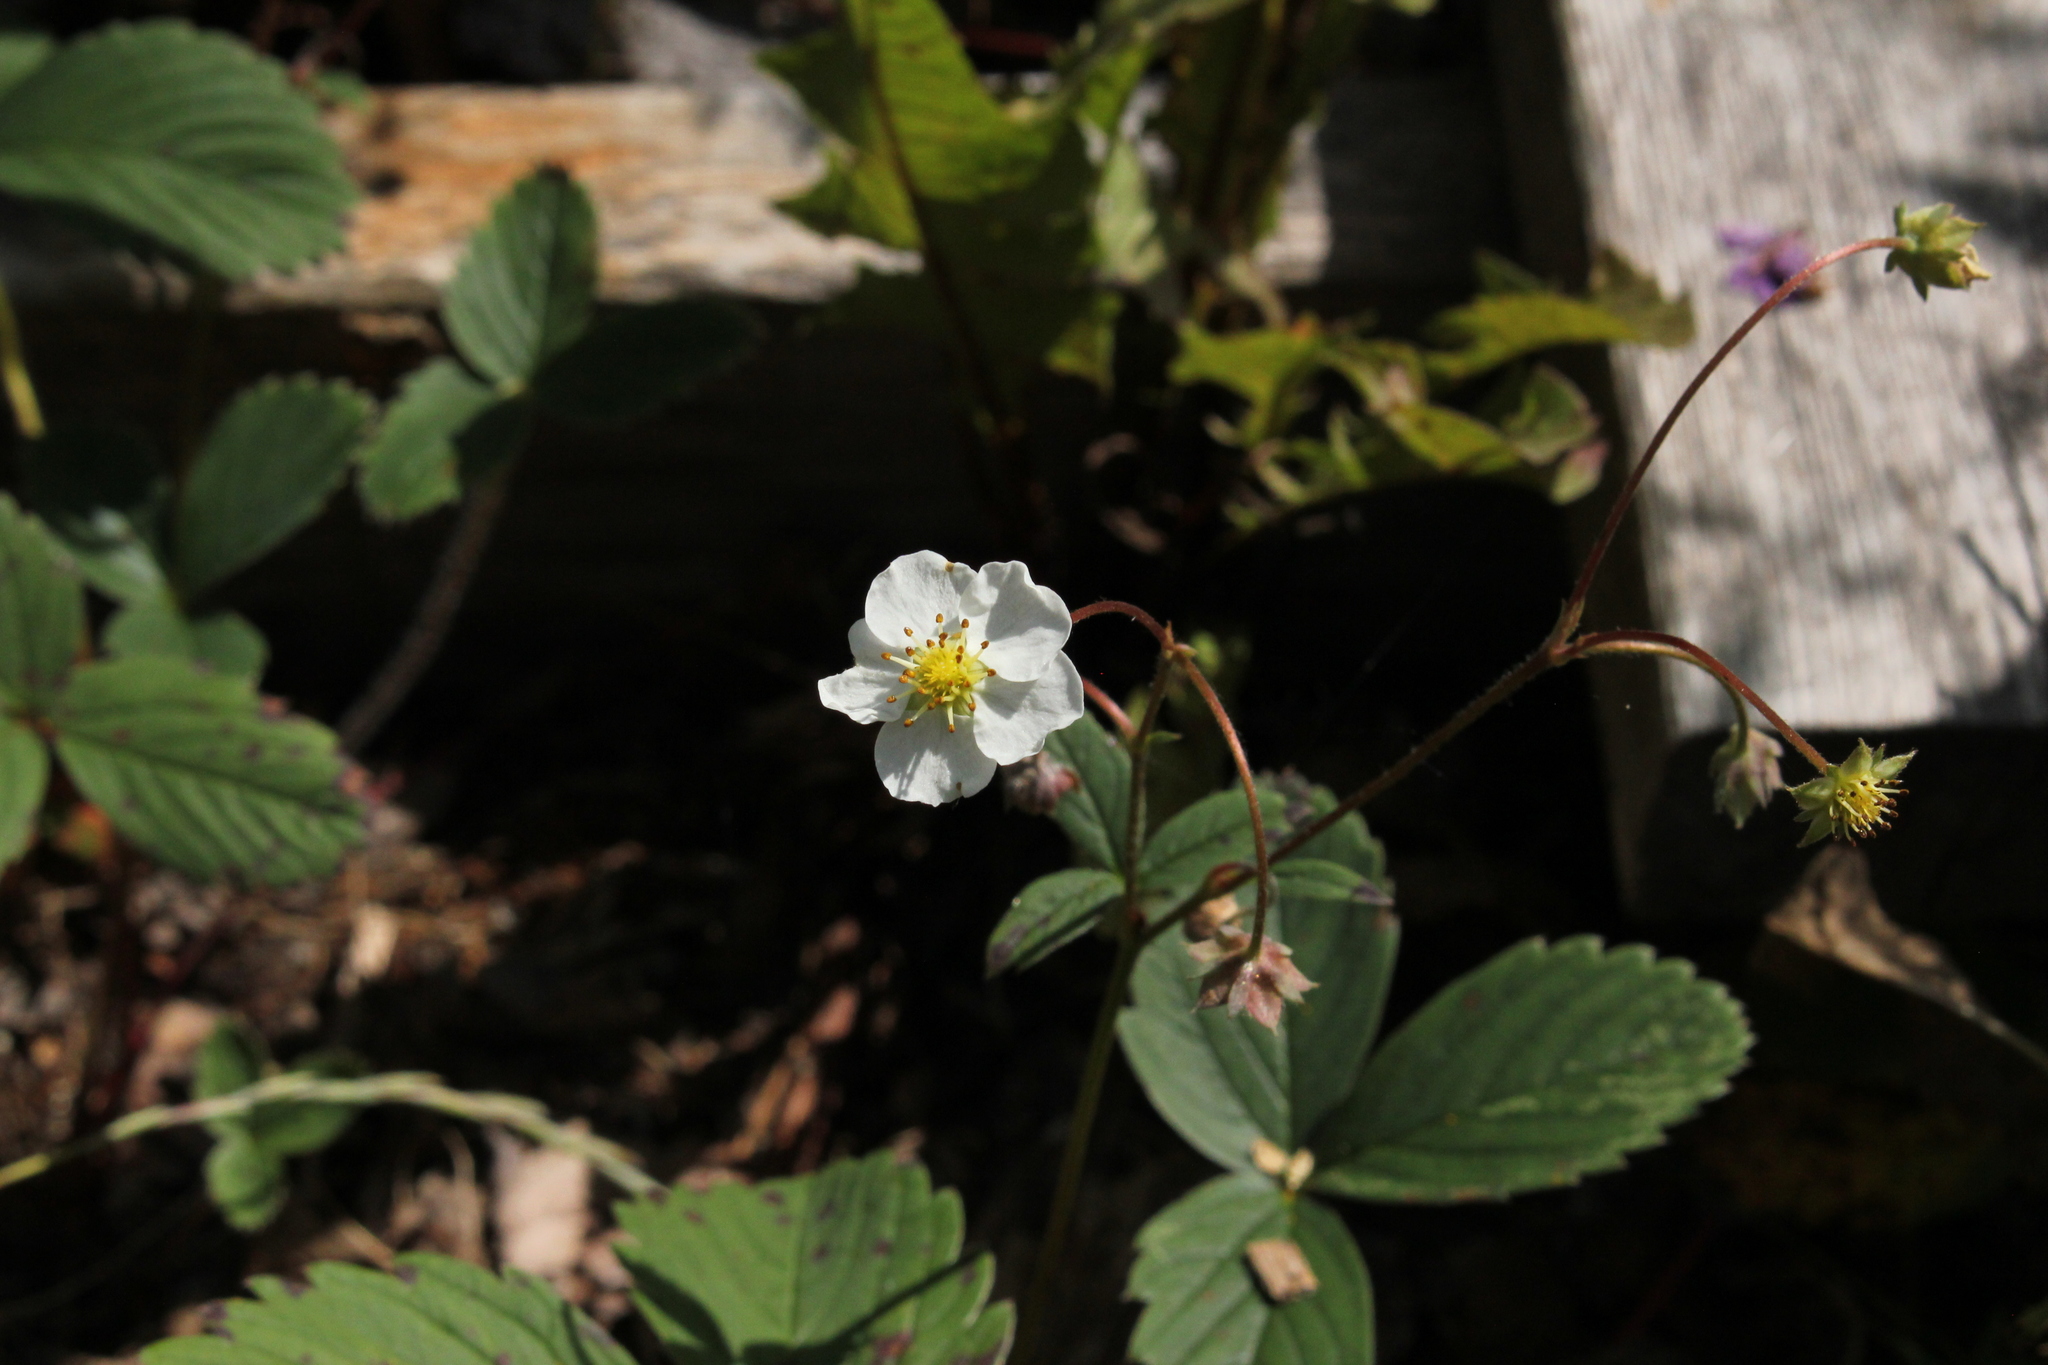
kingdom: Plantae
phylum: Tracheophyta
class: Magnoliopsida
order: Rosales
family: Rosaceae
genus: Fragaria
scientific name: Fragaria virginiana
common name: Thickleaved wild strawberry
